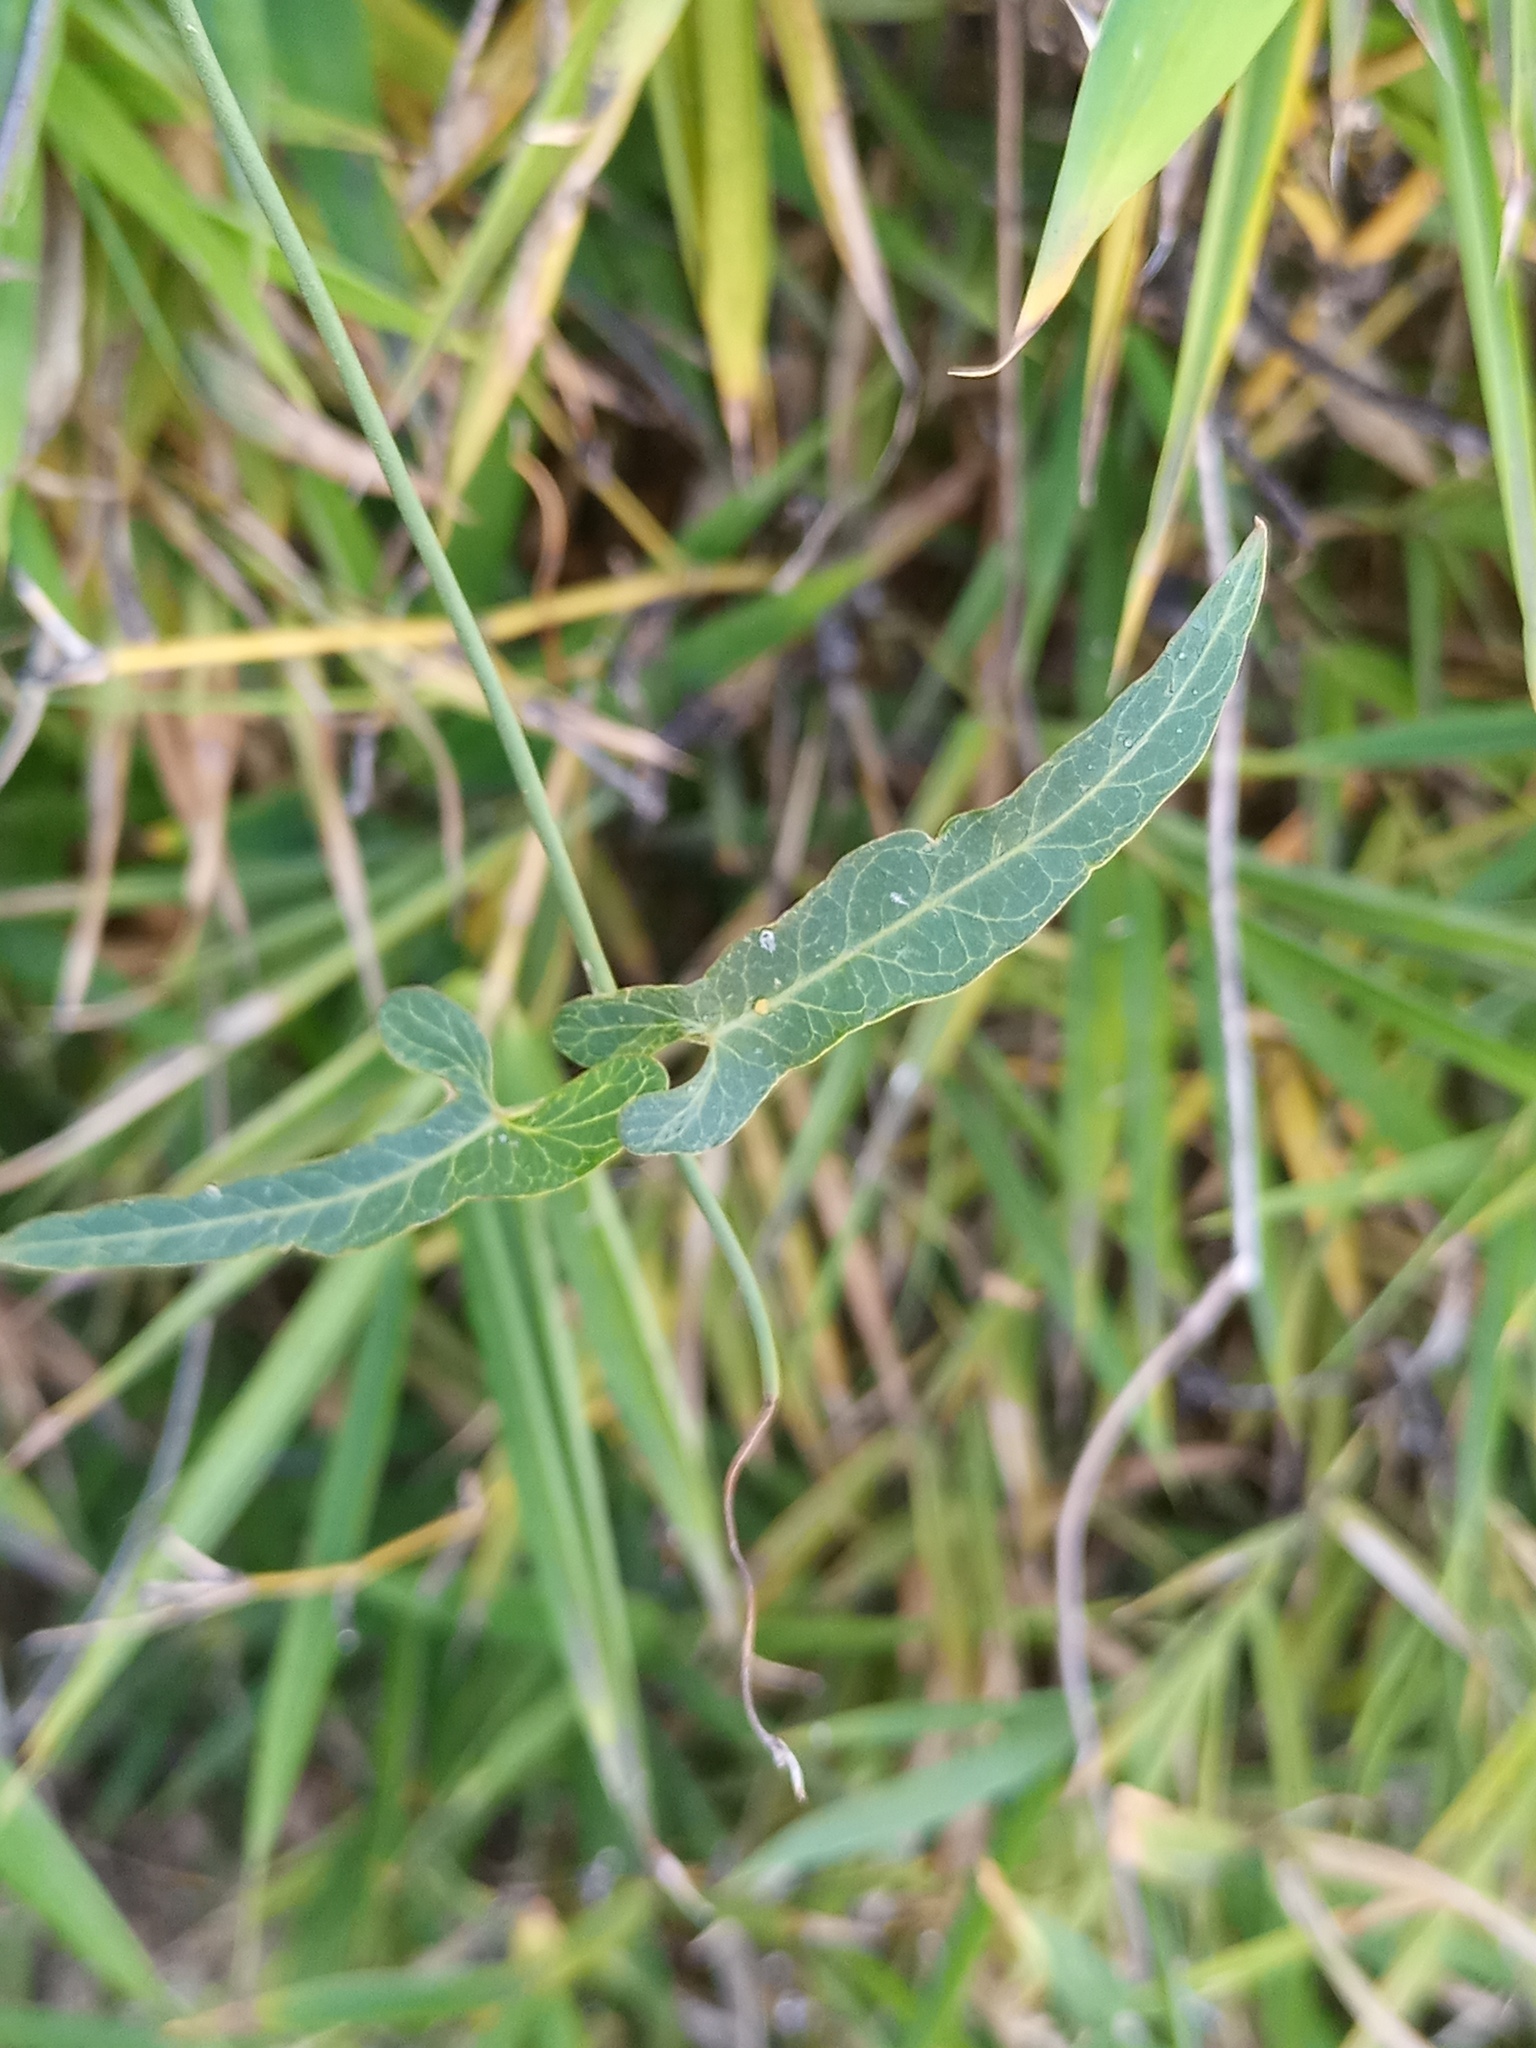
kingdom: Plantae
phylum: Tracheophyta
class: Magnoliopsida
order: Gentianales
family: Apocynaceae
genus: Araujia
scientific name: Araujia angustifolia
